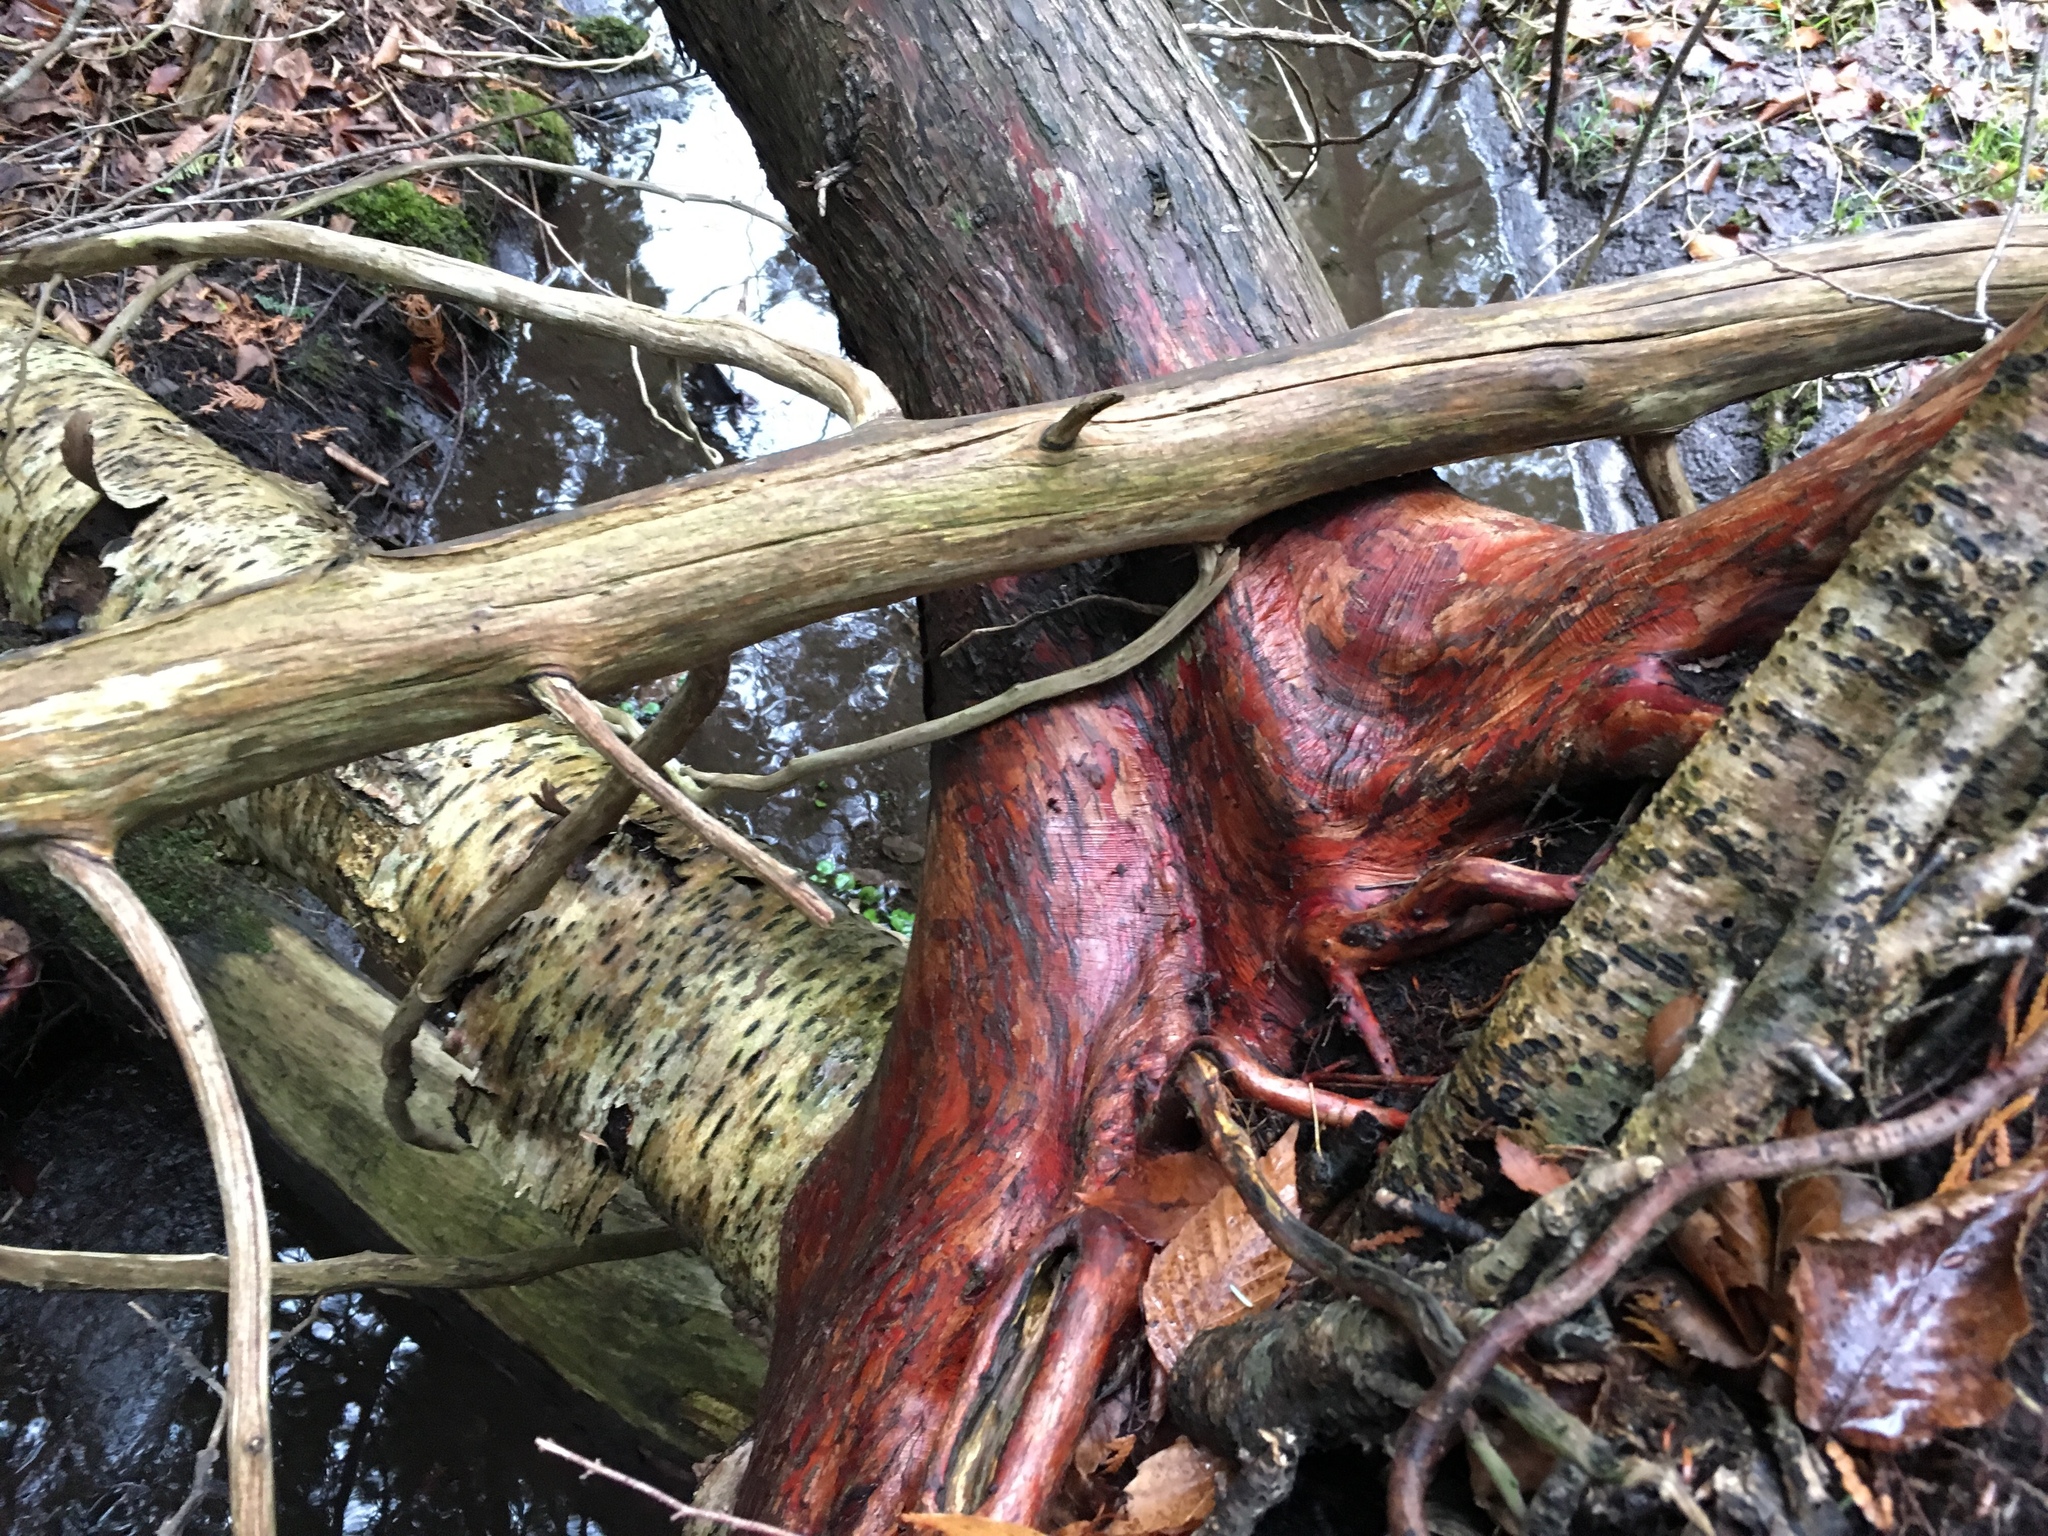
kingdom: Plantae
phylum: Tracheophyta
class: Pinopsida
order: Pinales
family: Cupressaceae
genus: Thuja
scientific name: Thuja occidentalis
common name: Northern white-cedar
